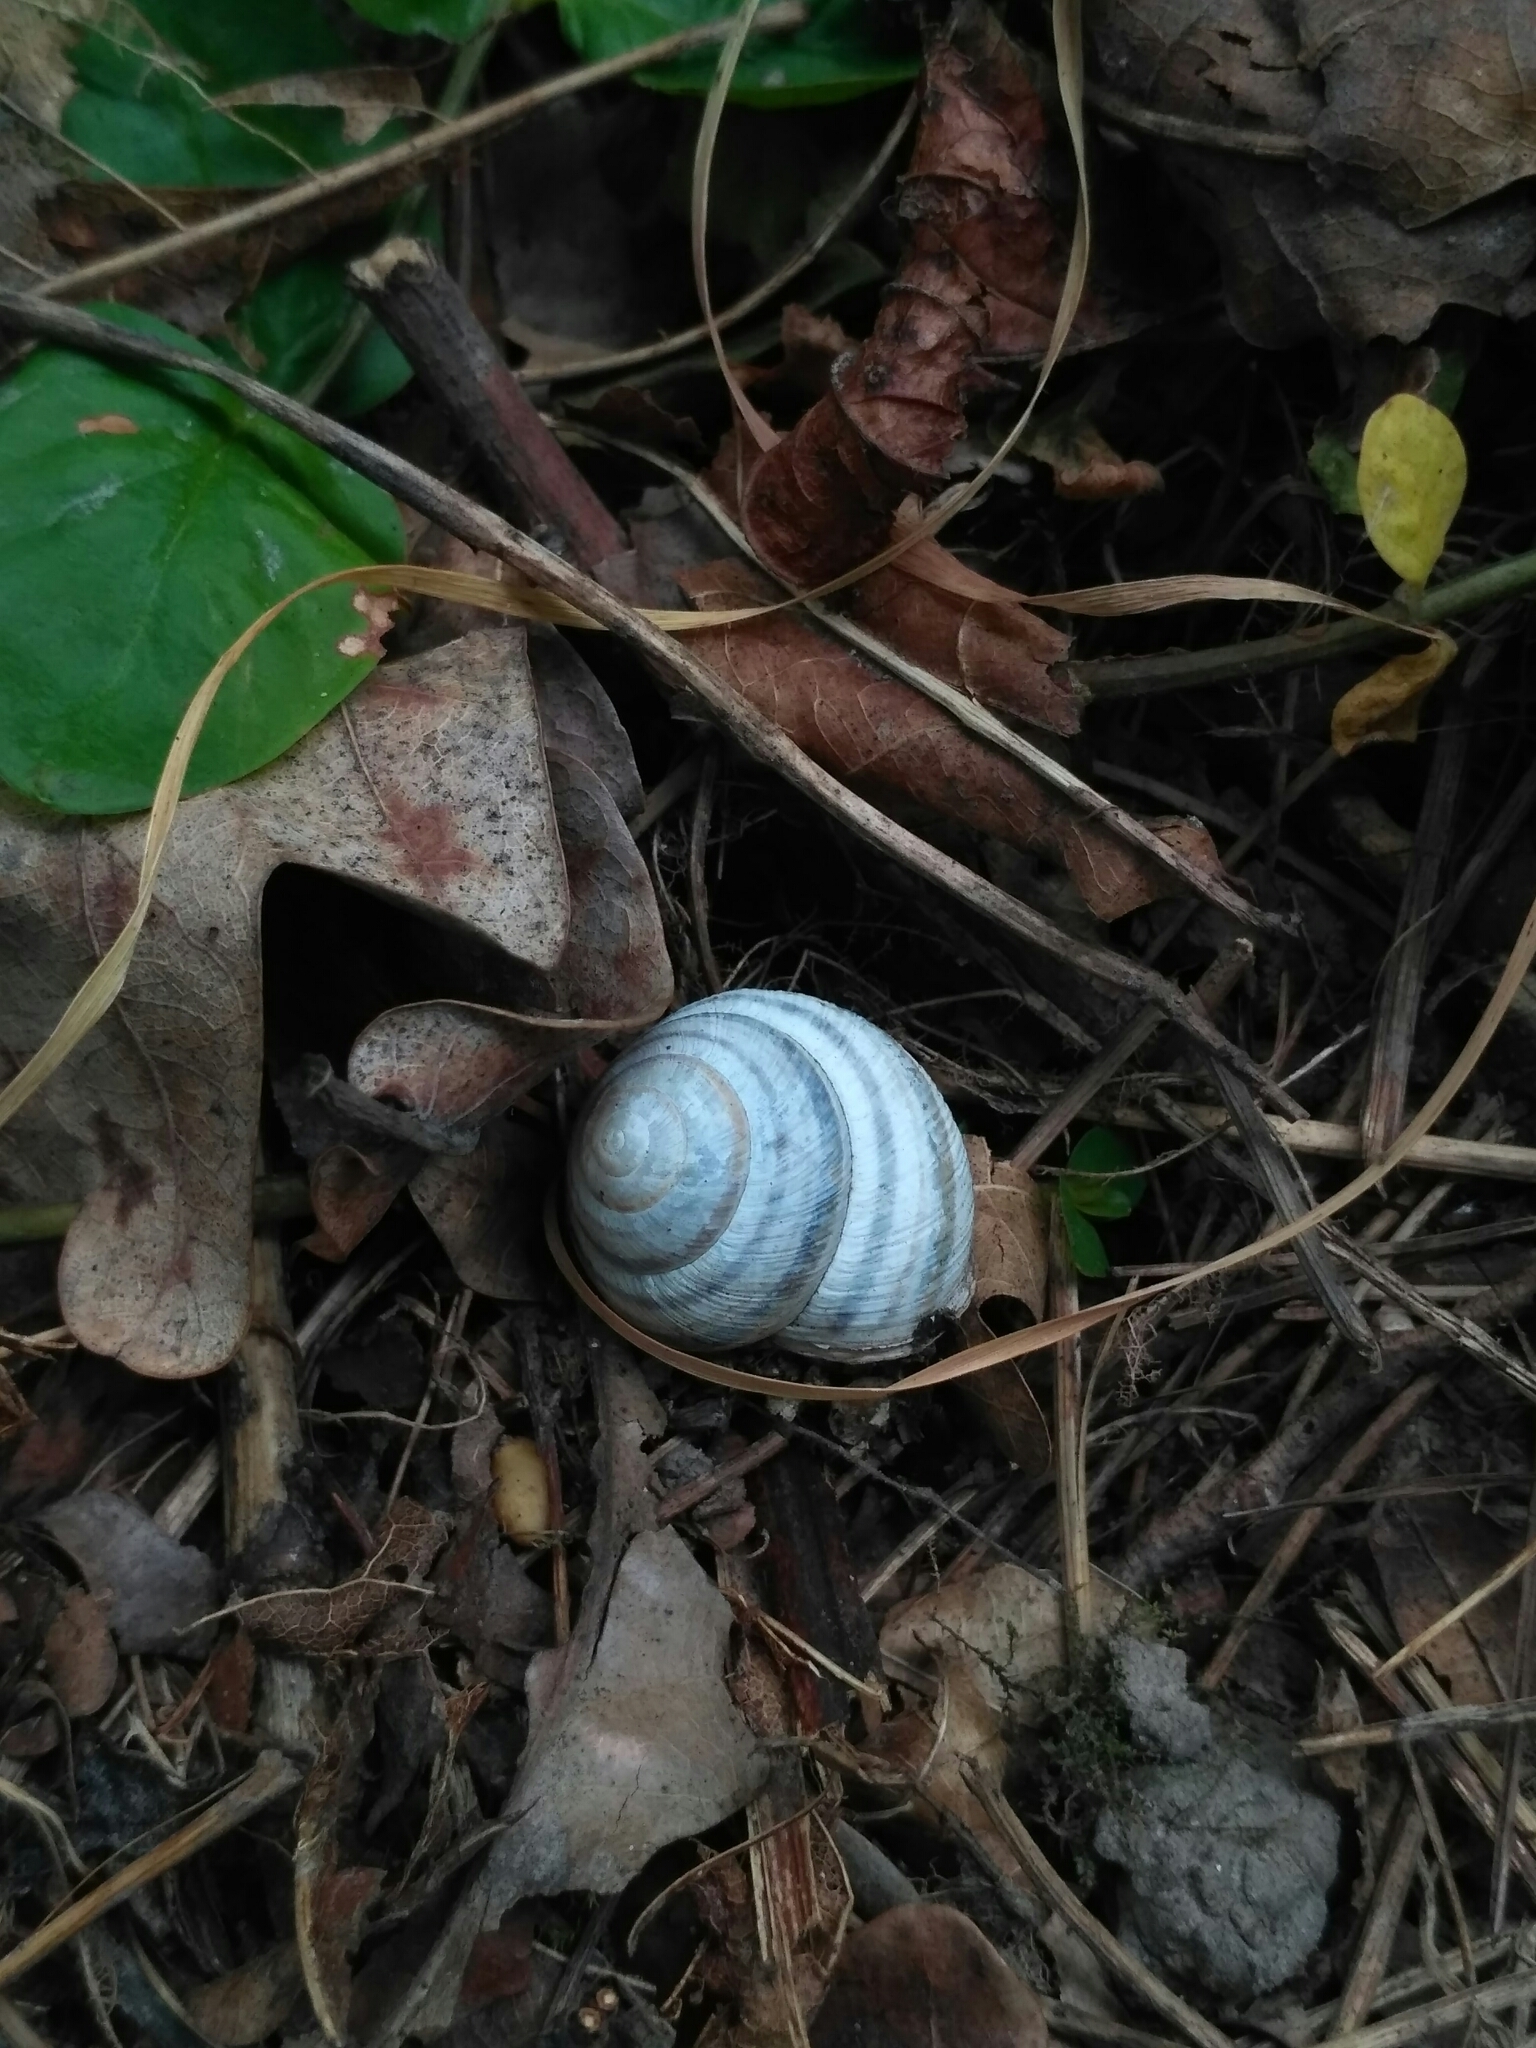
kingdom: Animalia
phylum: Mollusca
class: Gastropoda
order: Stylommatophora
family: Helicidae
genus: Caucasotachea
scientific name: Caucasotachea vindobonensis
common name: European helicid land snail
